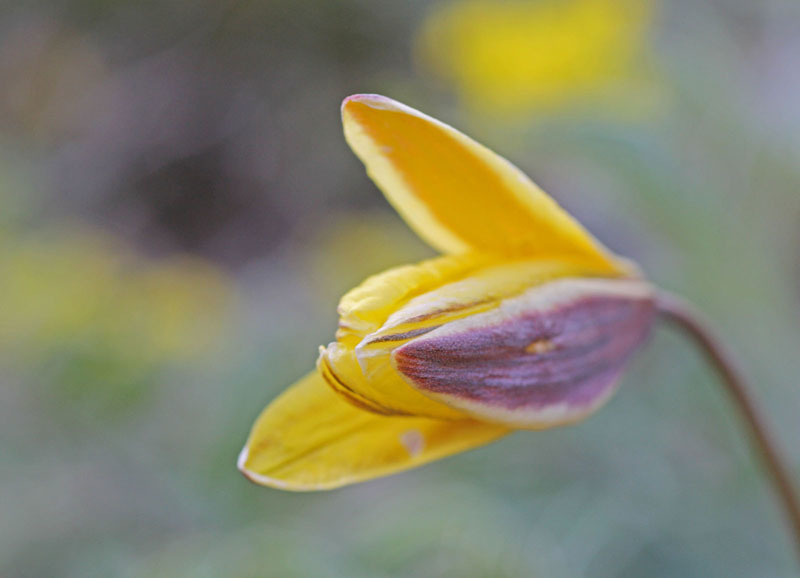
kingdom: Plantae
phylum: Tracheophyta
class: Liliopsida
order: Liliales
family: Liliaceae
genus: Tulipa
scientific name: Tulipa uniflora
